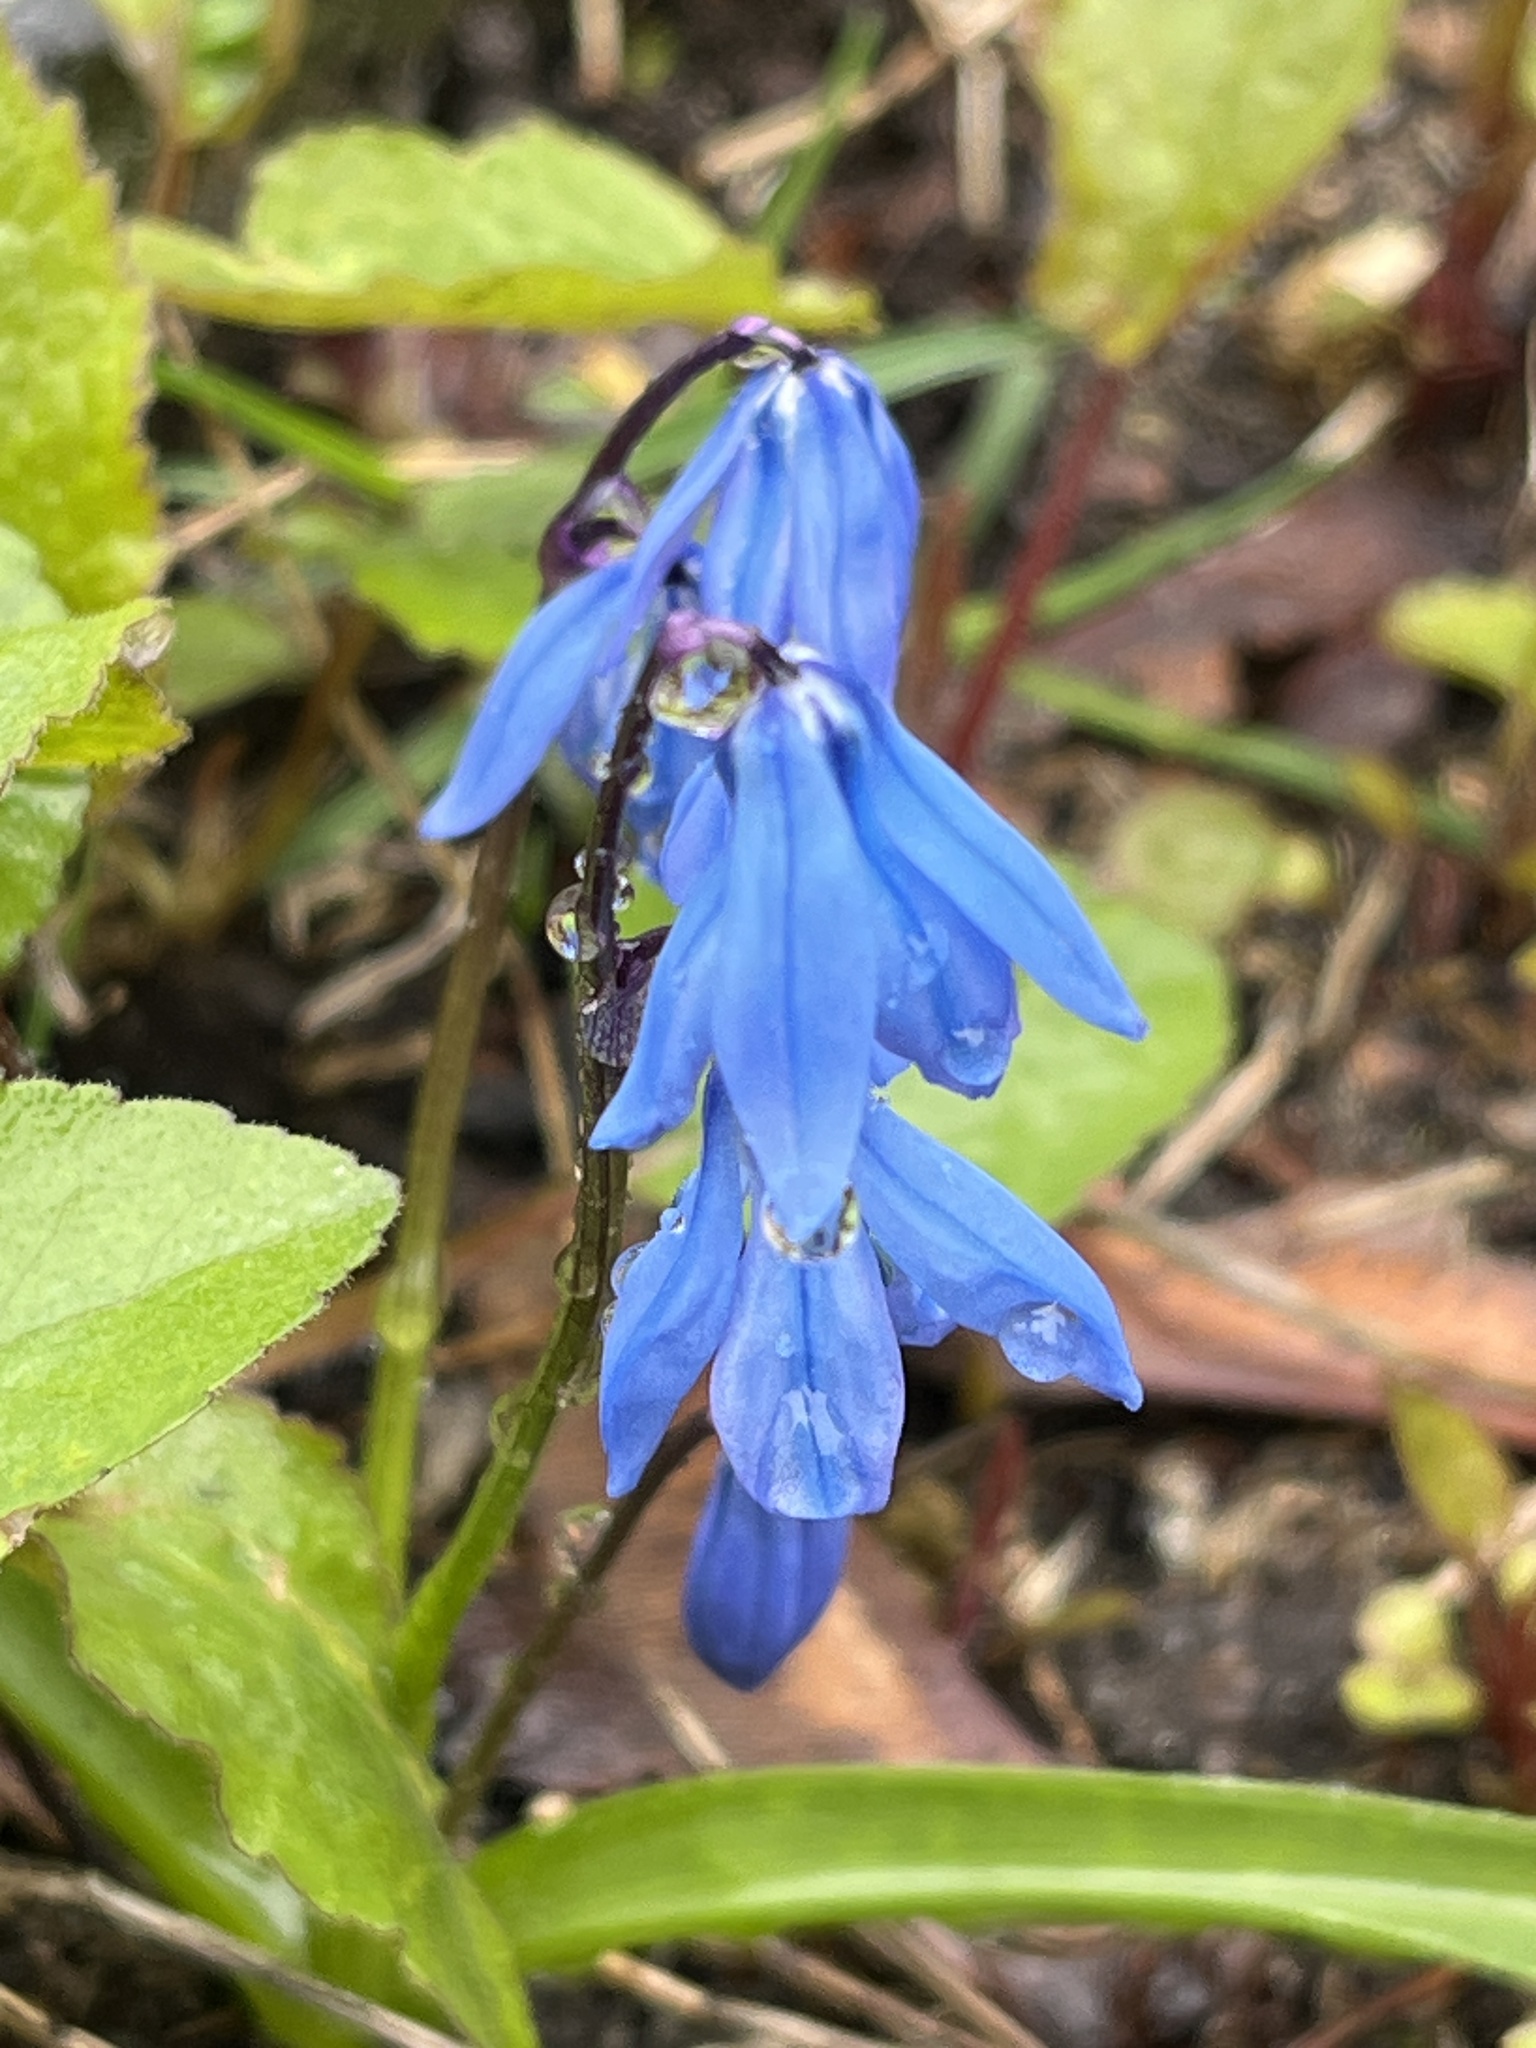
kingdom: Plantae
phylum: Tracheophyta
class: Liliopsida
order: Asparagales
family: Asparagaceae
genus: Scilla
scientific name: Scilla siberica
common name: Siberian squill
